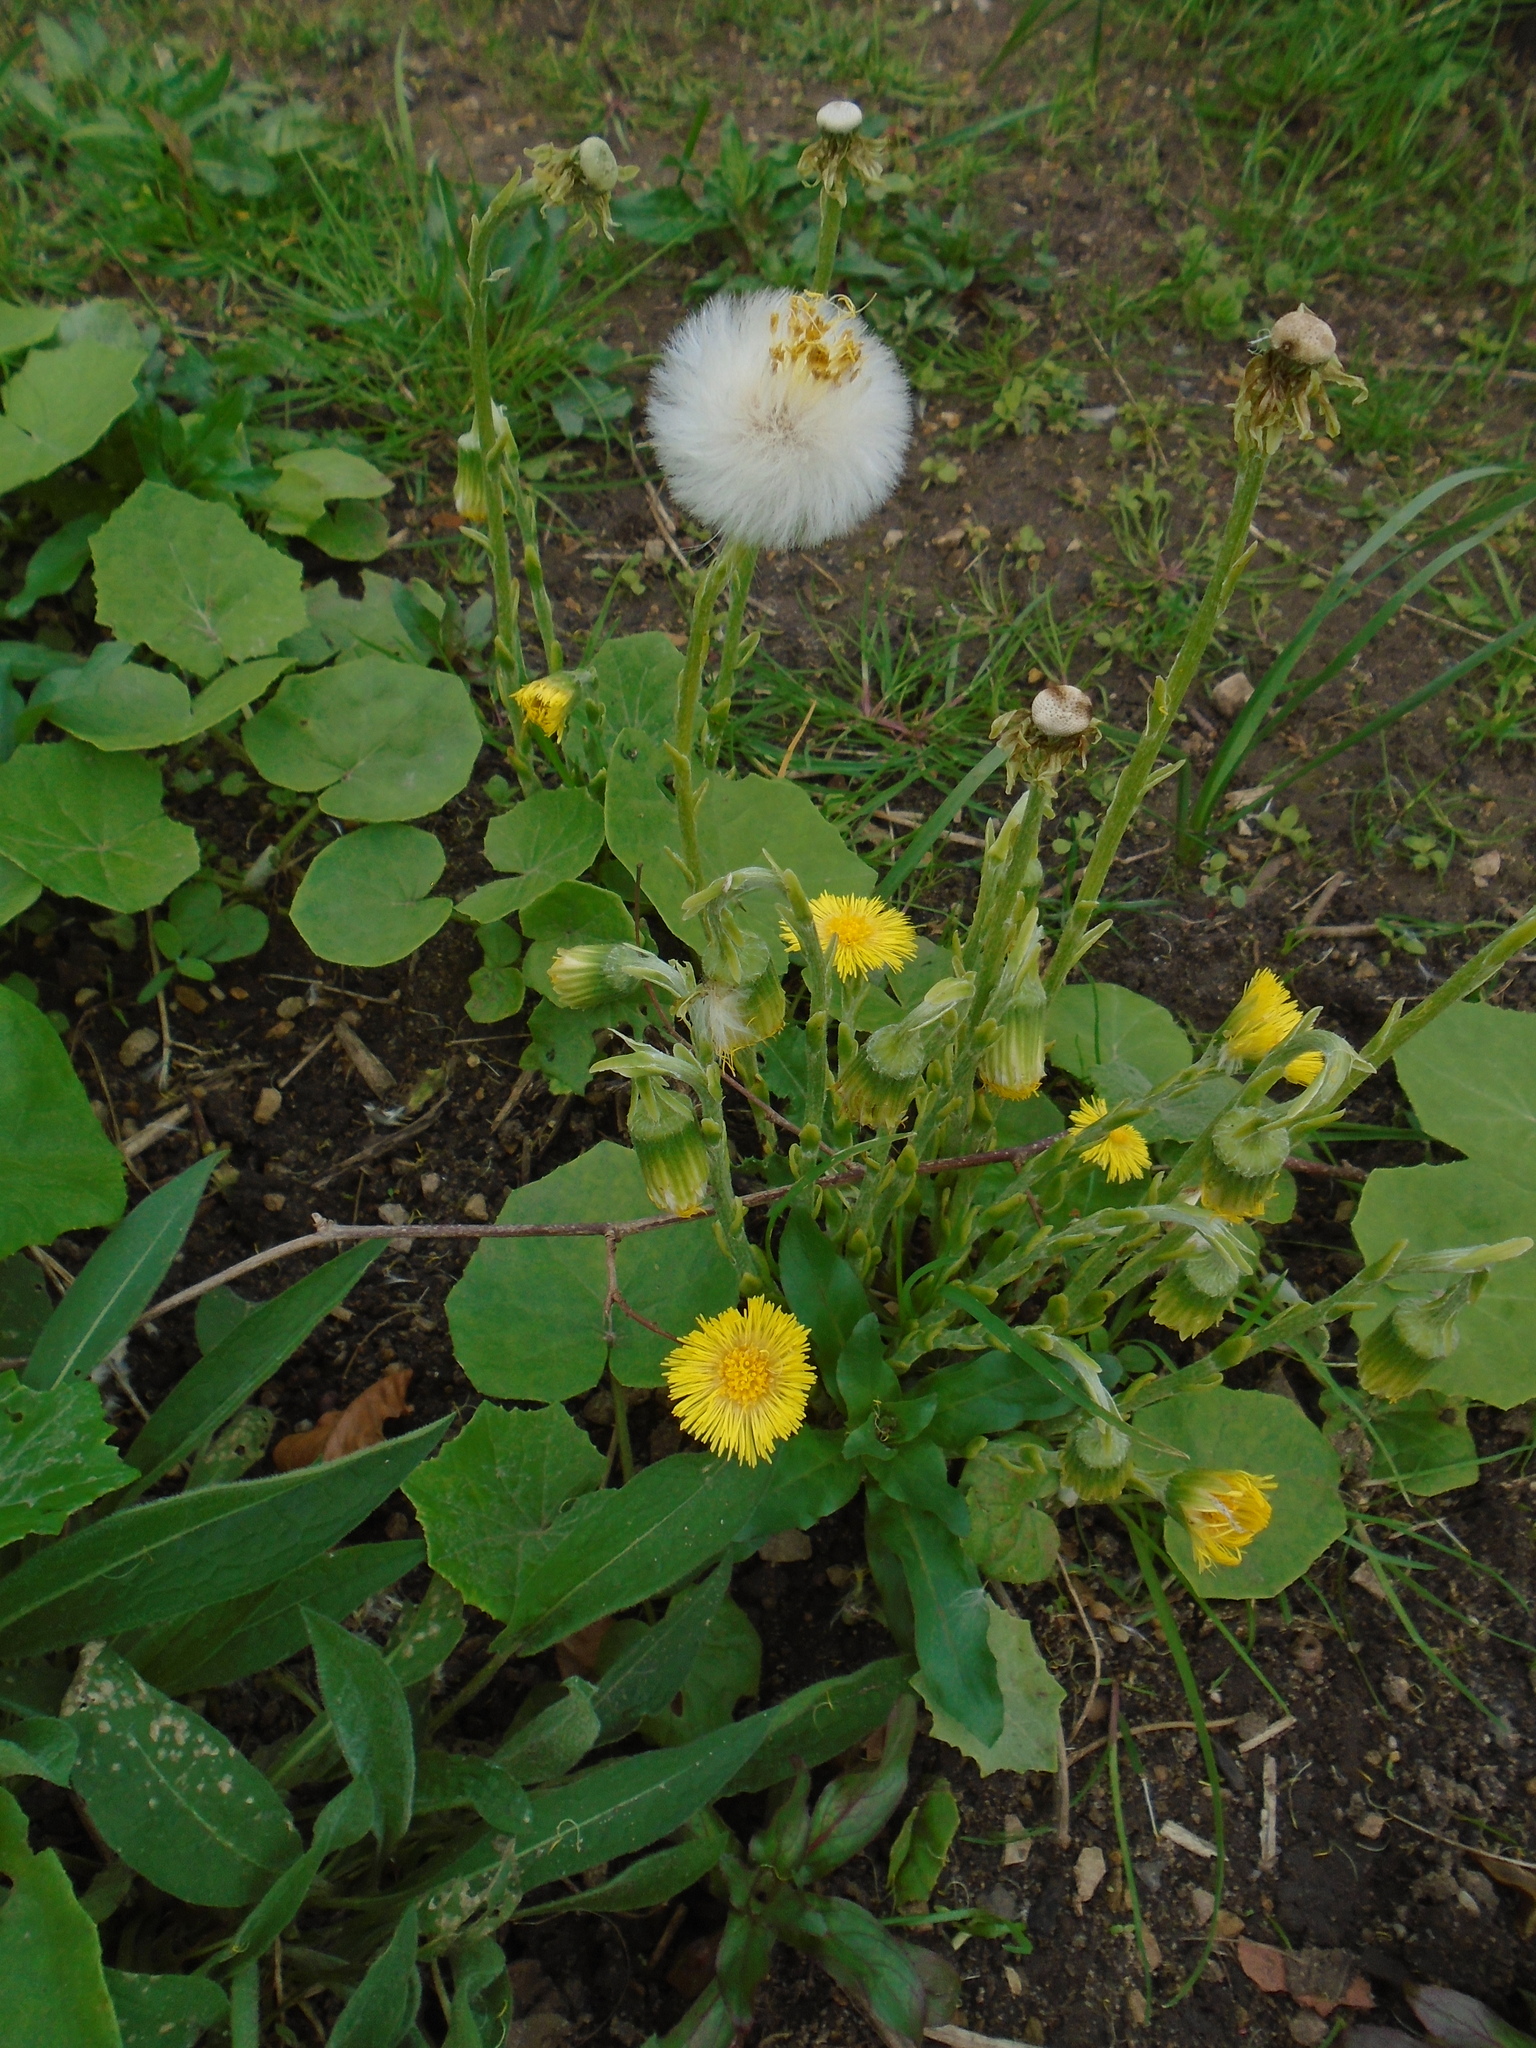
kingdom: Plantae
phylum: Tracheophyta
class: Magnoliopsida
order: Asterales
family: Asteraceae
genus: Tussilago
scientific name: Tussilago farfara
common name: Coltsfoot
